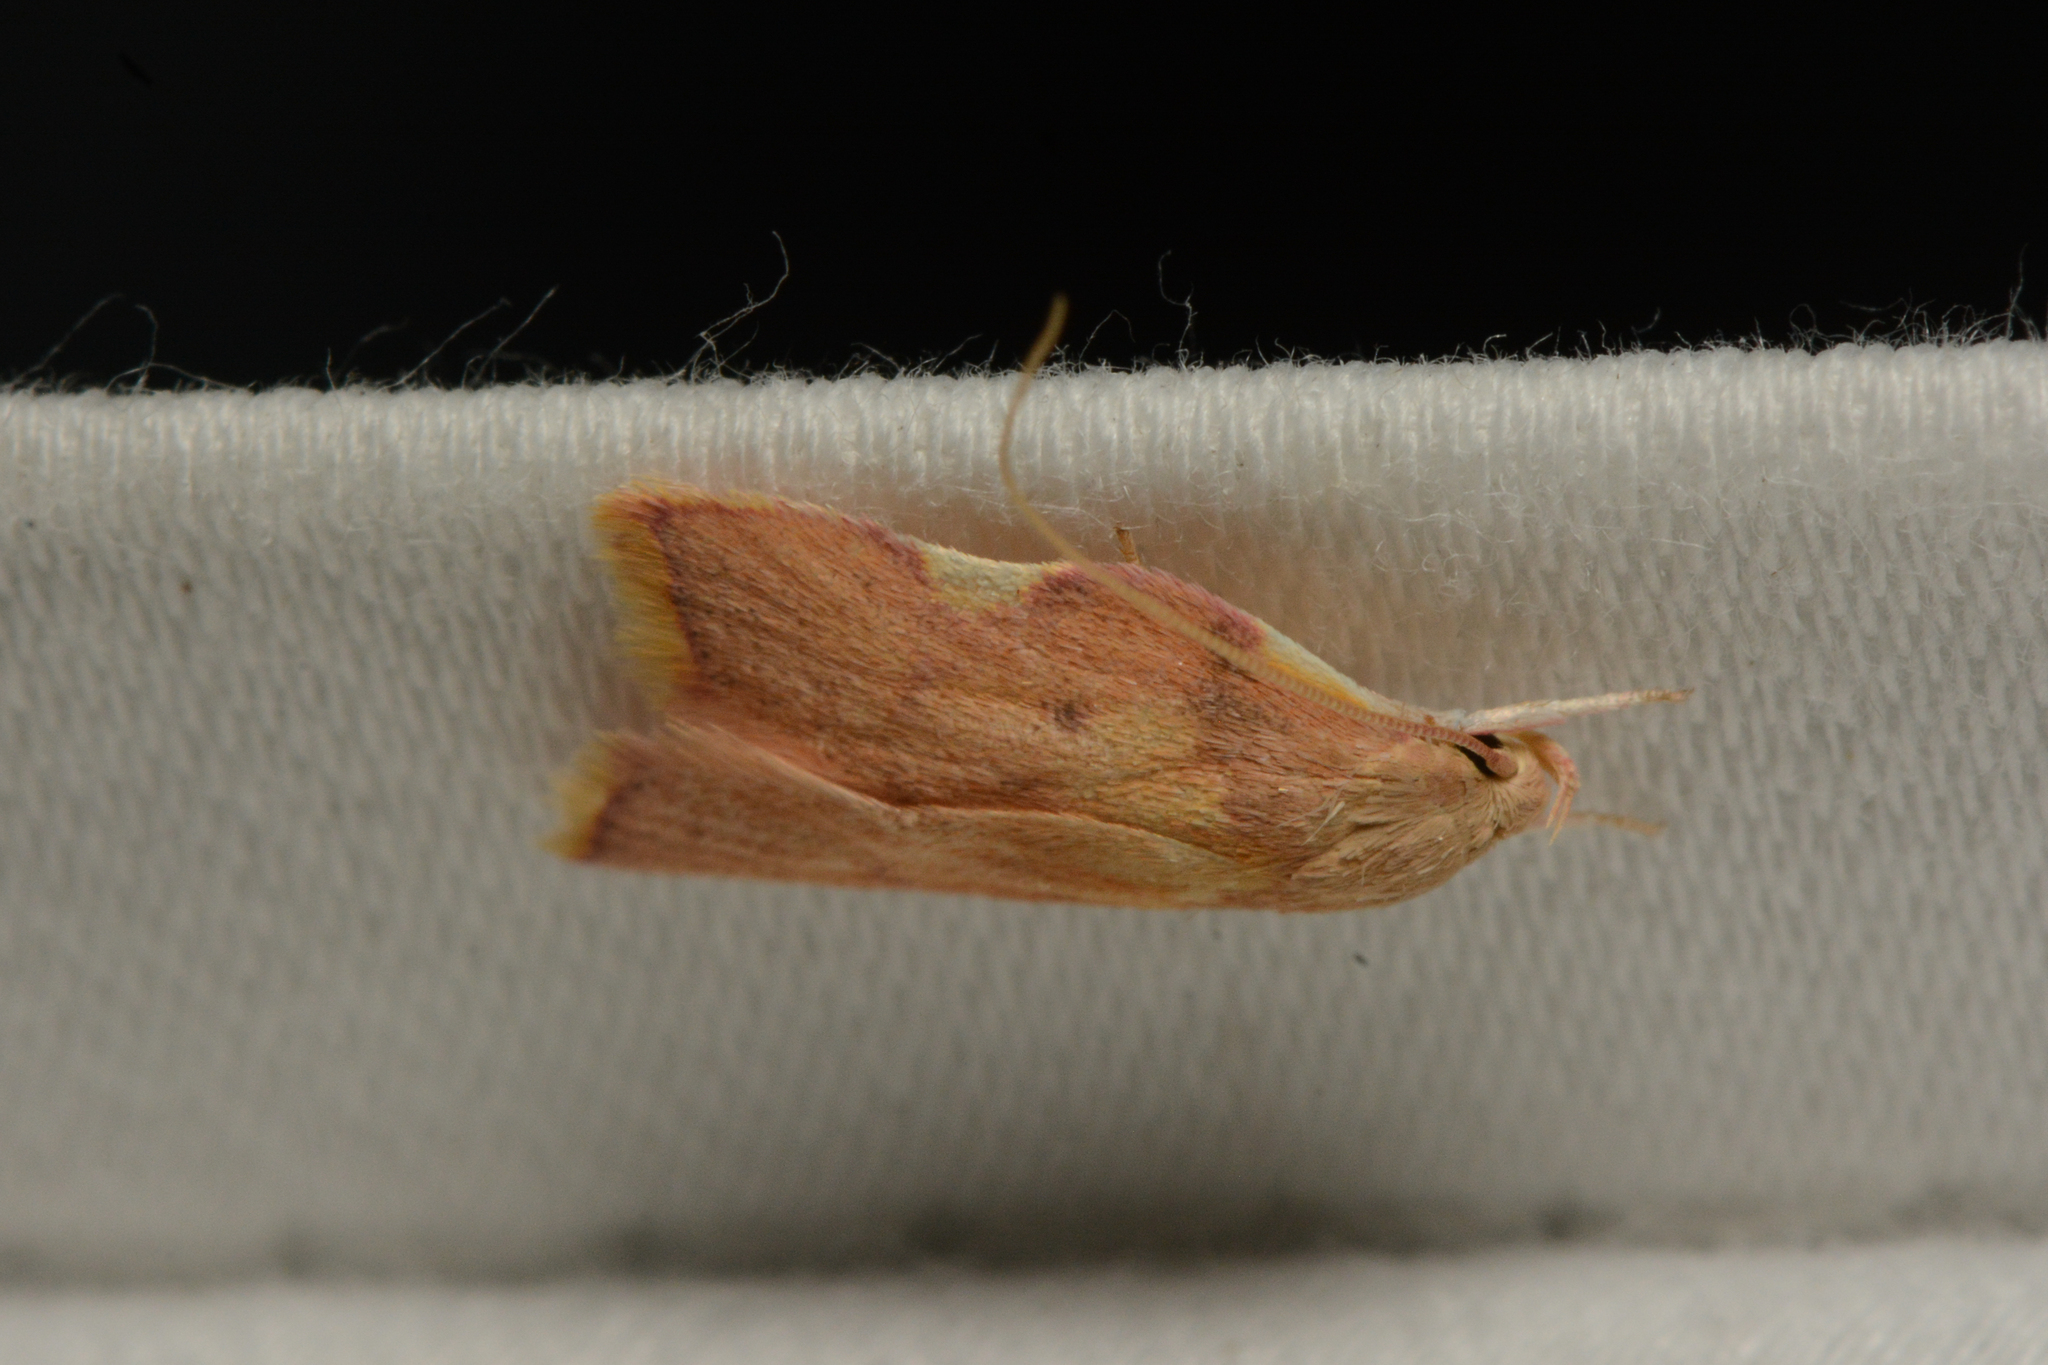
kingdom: Animalia
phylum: Arthropoda
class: Insecta
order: Lepidoptera
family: Peleopodidae
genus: Carcina
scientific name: Carcina quercana
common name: Moth
